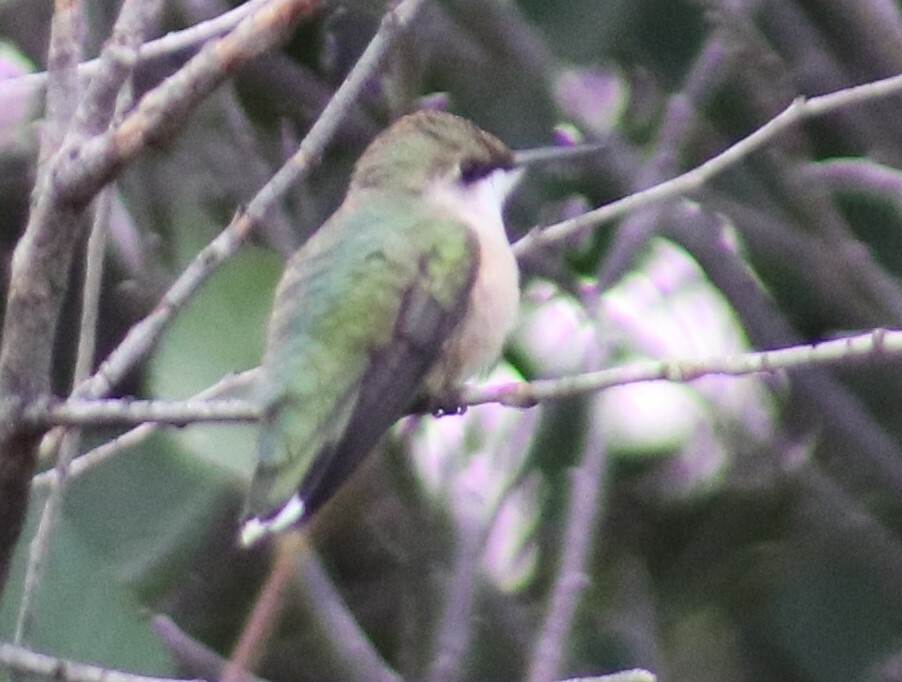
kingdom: Animalia
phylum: Chordata
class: Aves
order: Apodiformes
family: Trochilidae
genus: Archilochus
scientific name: Archilochus colubris
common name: Ruby-throated hummingbird
